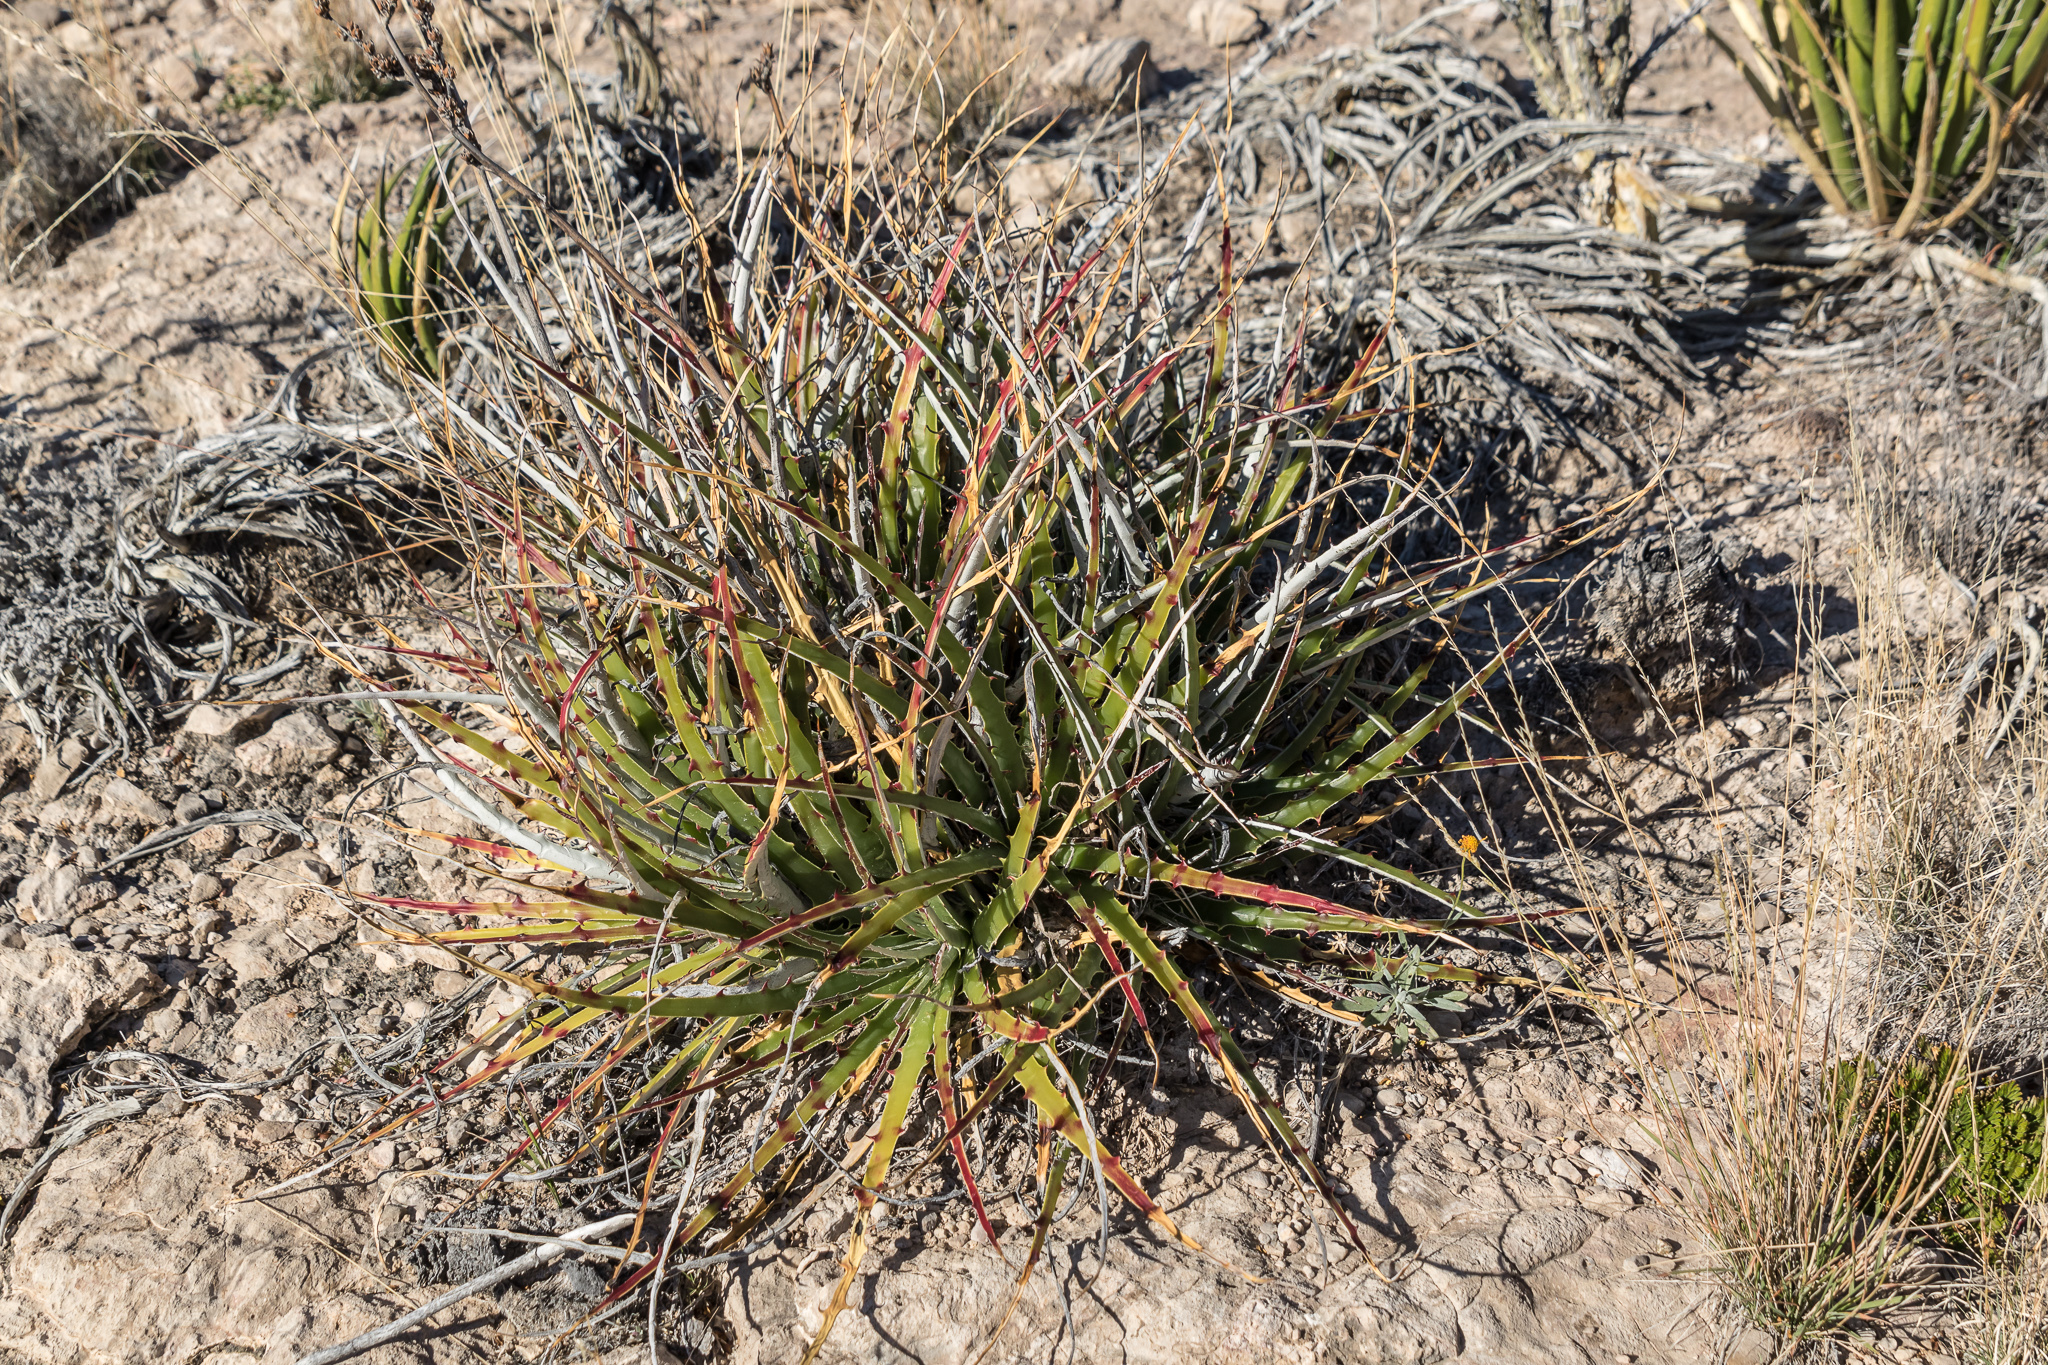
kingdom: Plantae
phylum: Tracheophyta
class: Liliopsida
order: Poales
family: Bromeliaceae
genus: Hechtia
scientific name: Hechtia texensis
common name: False agave
